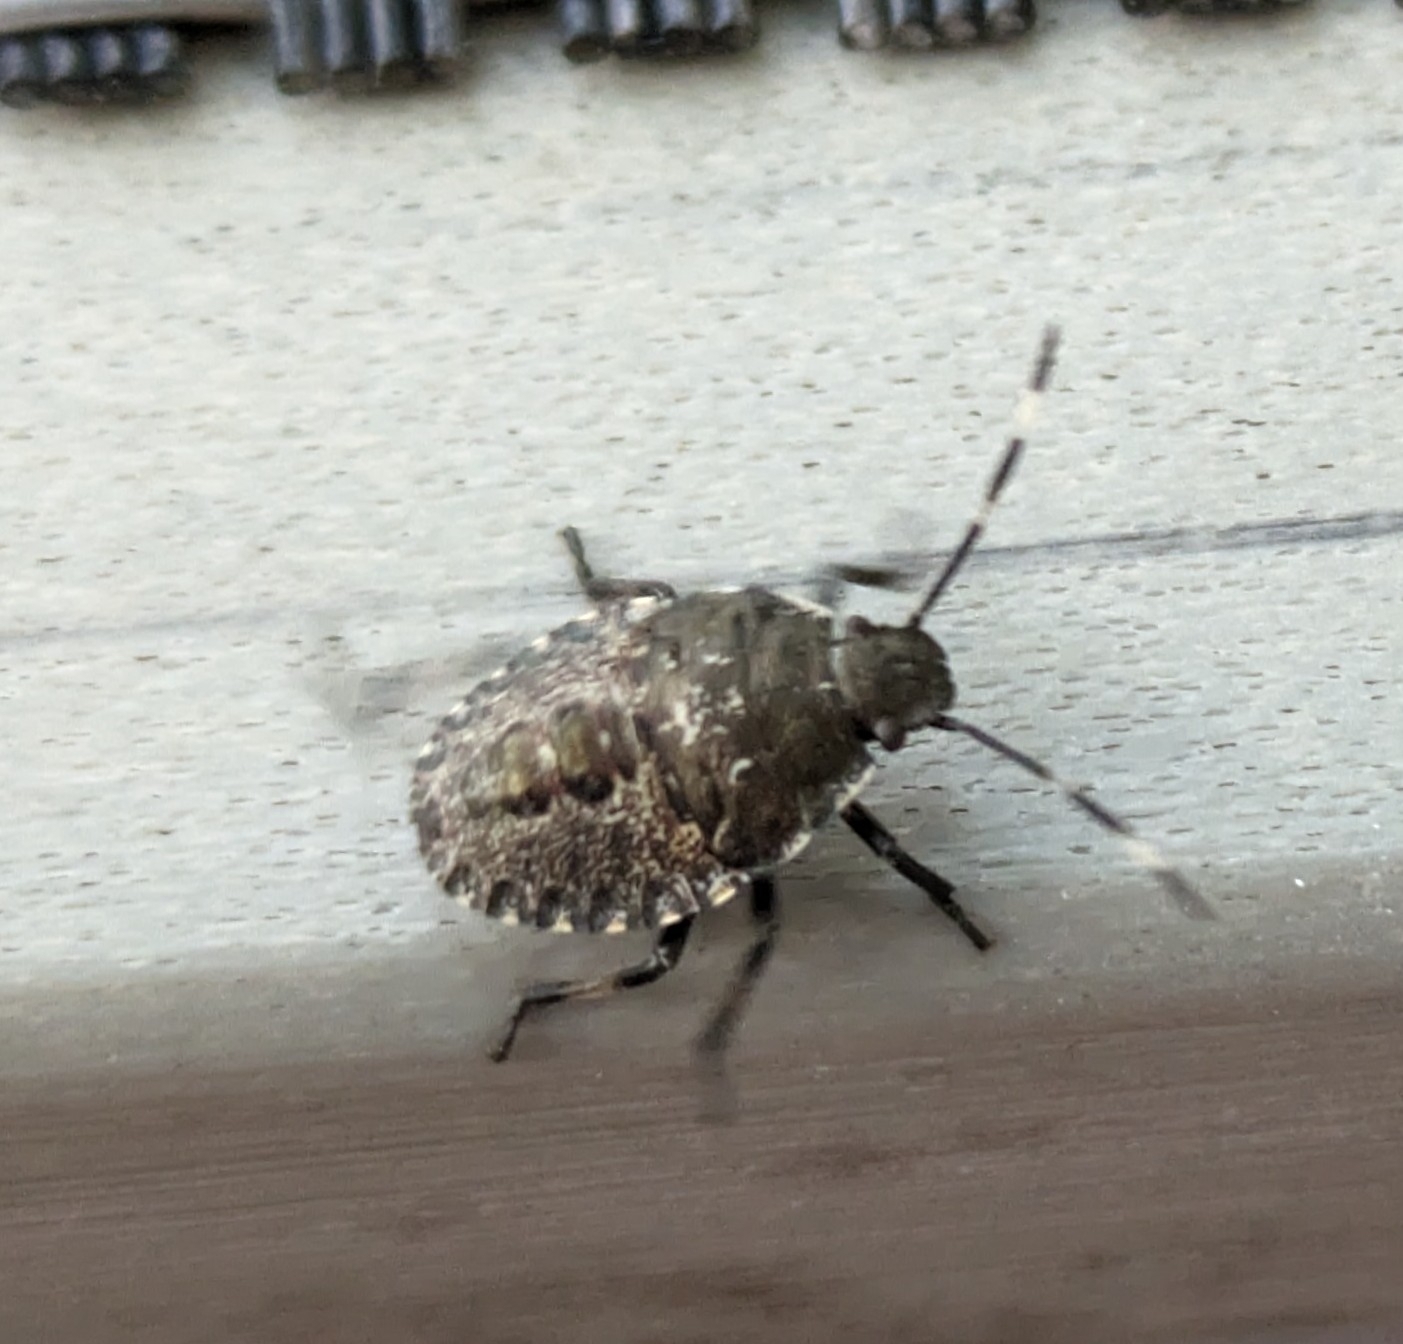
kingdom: Animalia
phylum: Arthropoda
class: Insecta
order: Hemiptera
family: Pentatomidae
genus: Rhaphigaster
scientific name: Rhaphigaster nebulosa
